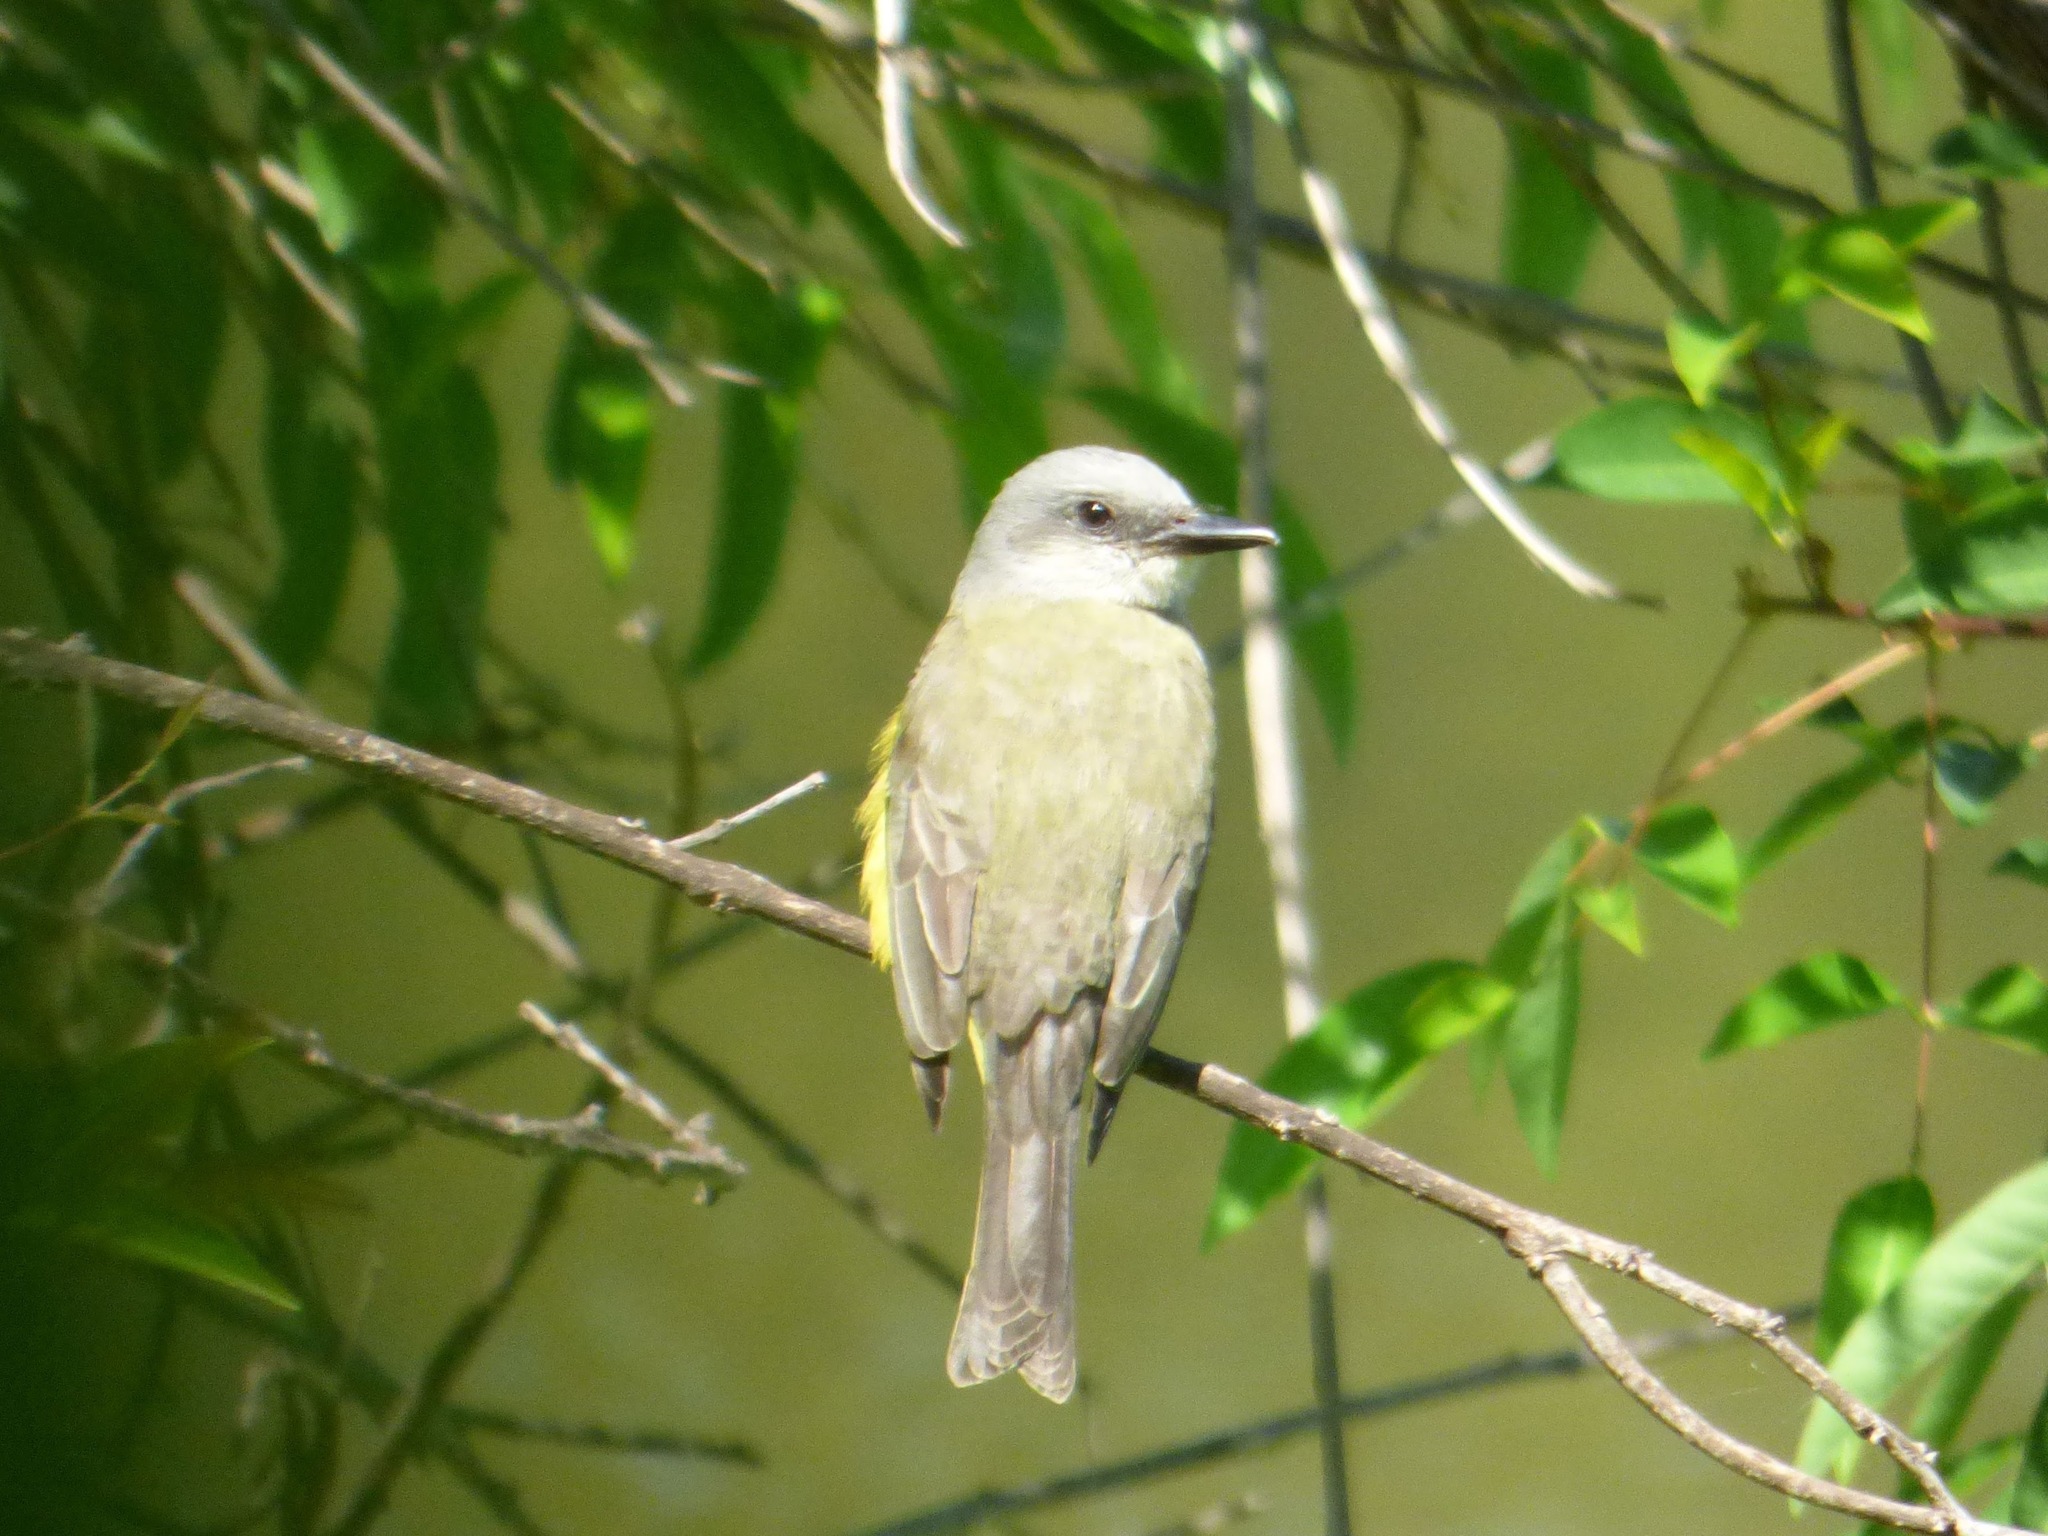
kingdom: Animalia
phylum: Chordata
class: Aves
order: Passeriformes
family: Tyrannidae
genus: Tyrannus
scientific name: Tyrannus melancholicus
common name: Tropical kingbird
